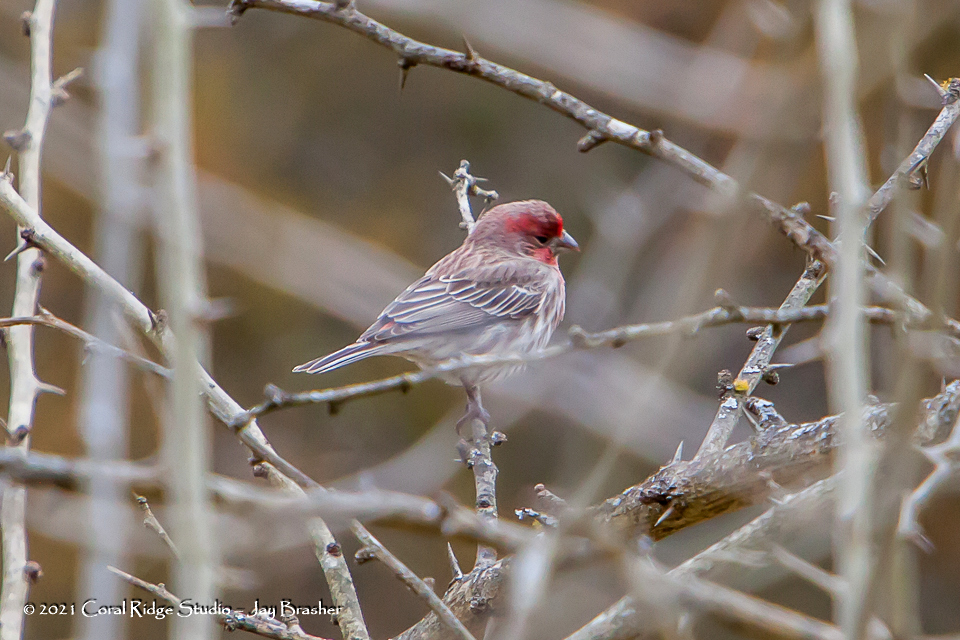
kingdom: Animalia
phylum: Chordata
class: Aves
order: Passeriformes
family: Fringillidae
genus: Haemorhous
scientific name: Haemorhous mexicanus
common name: House finch
